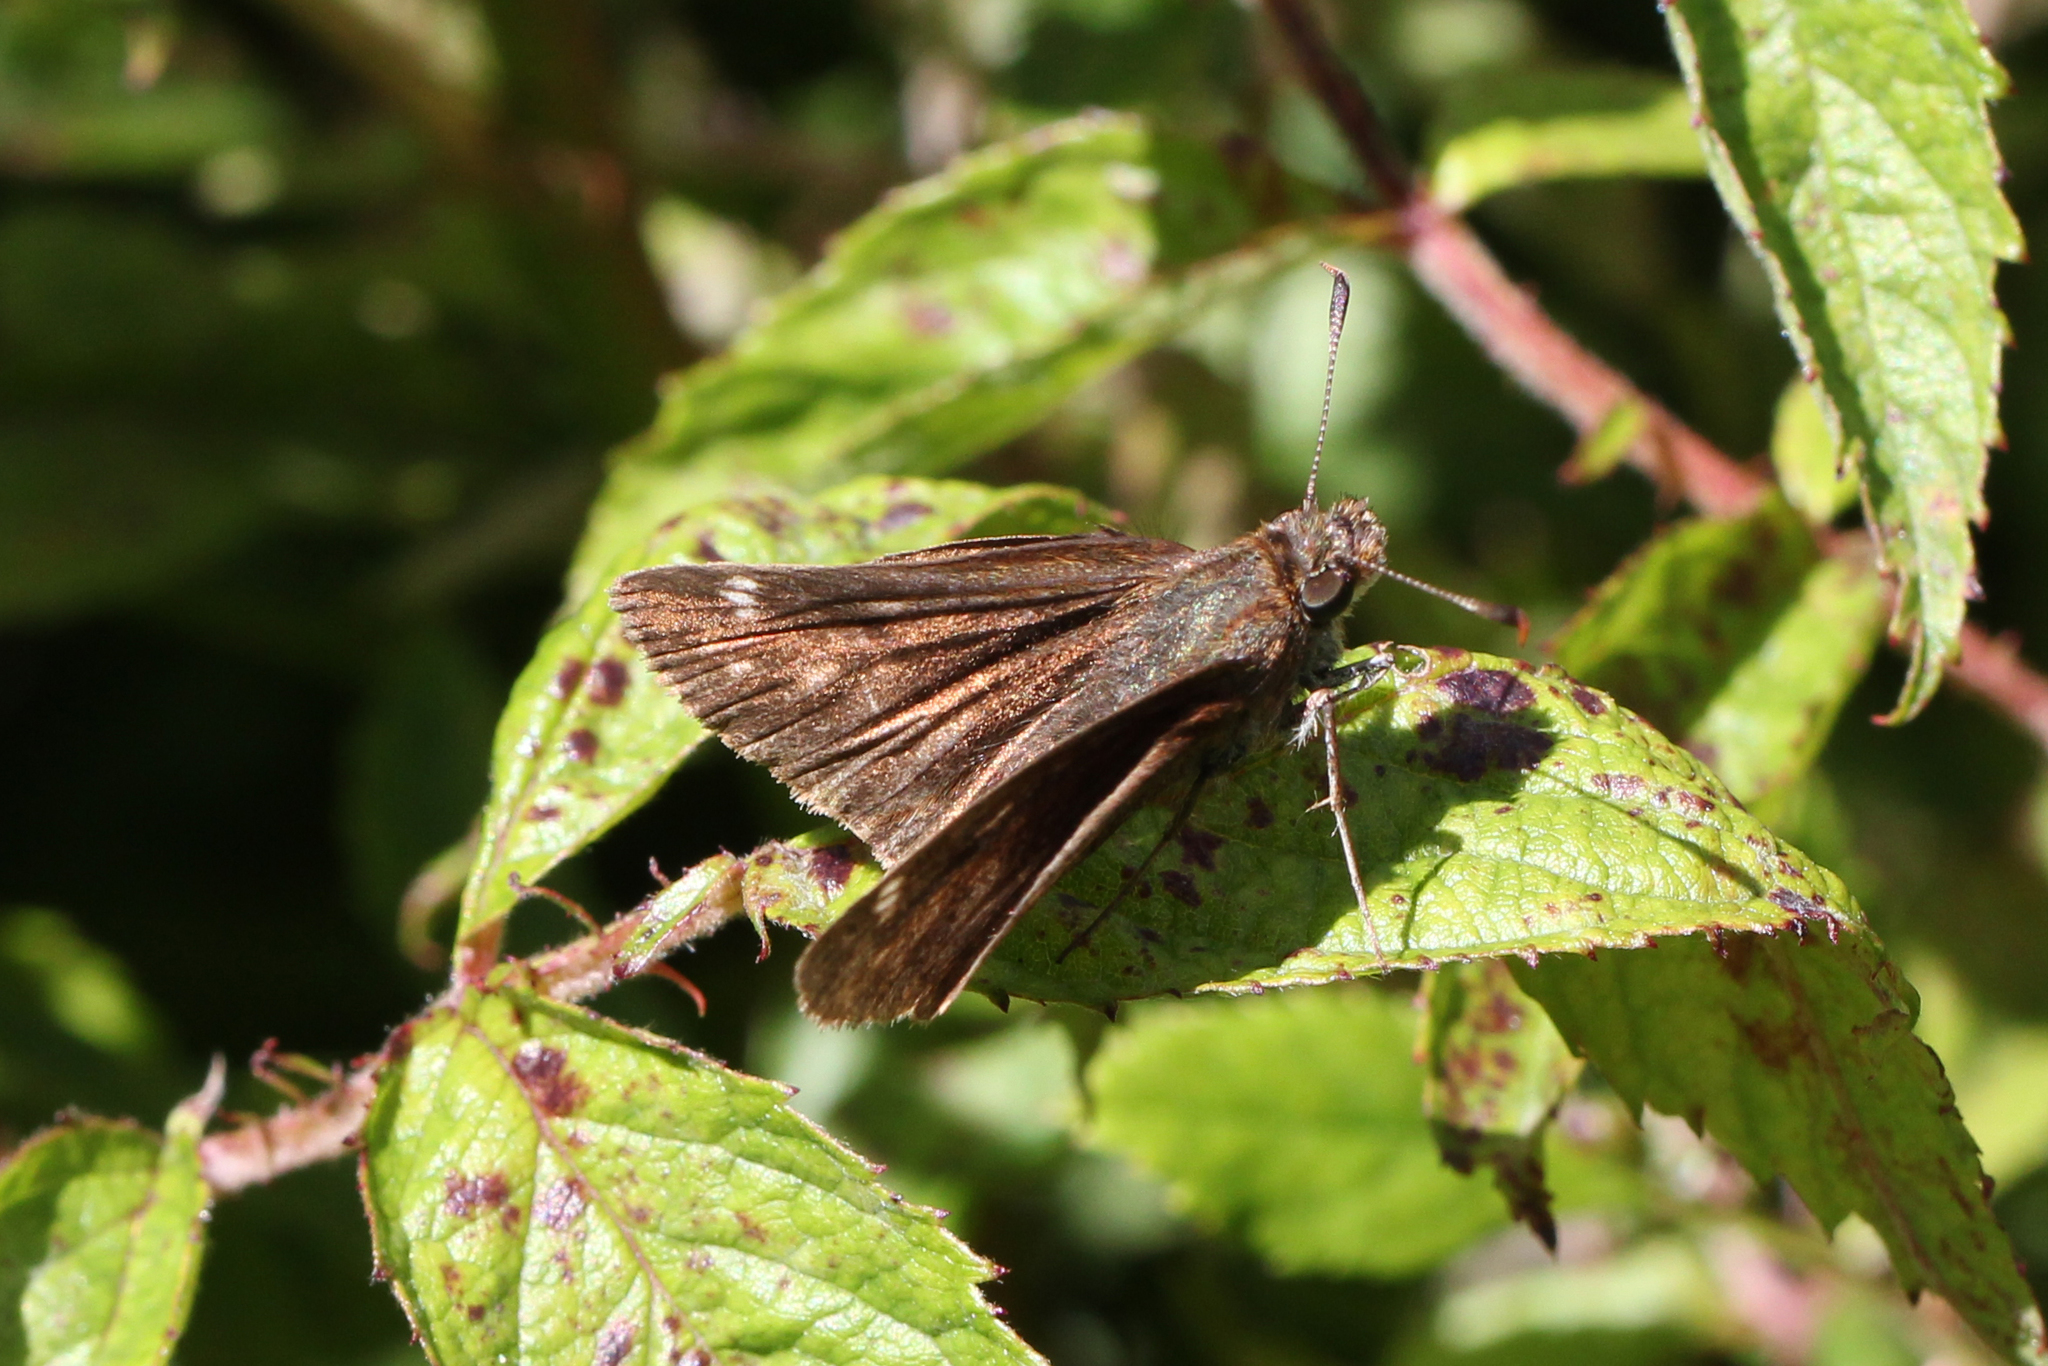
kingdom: Animalia
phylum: Arthropoda
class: Insecta
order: Lepidoptera
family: Hesperiidae
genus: Lon
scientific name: Lon hobomok
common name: Hobomok skipper
